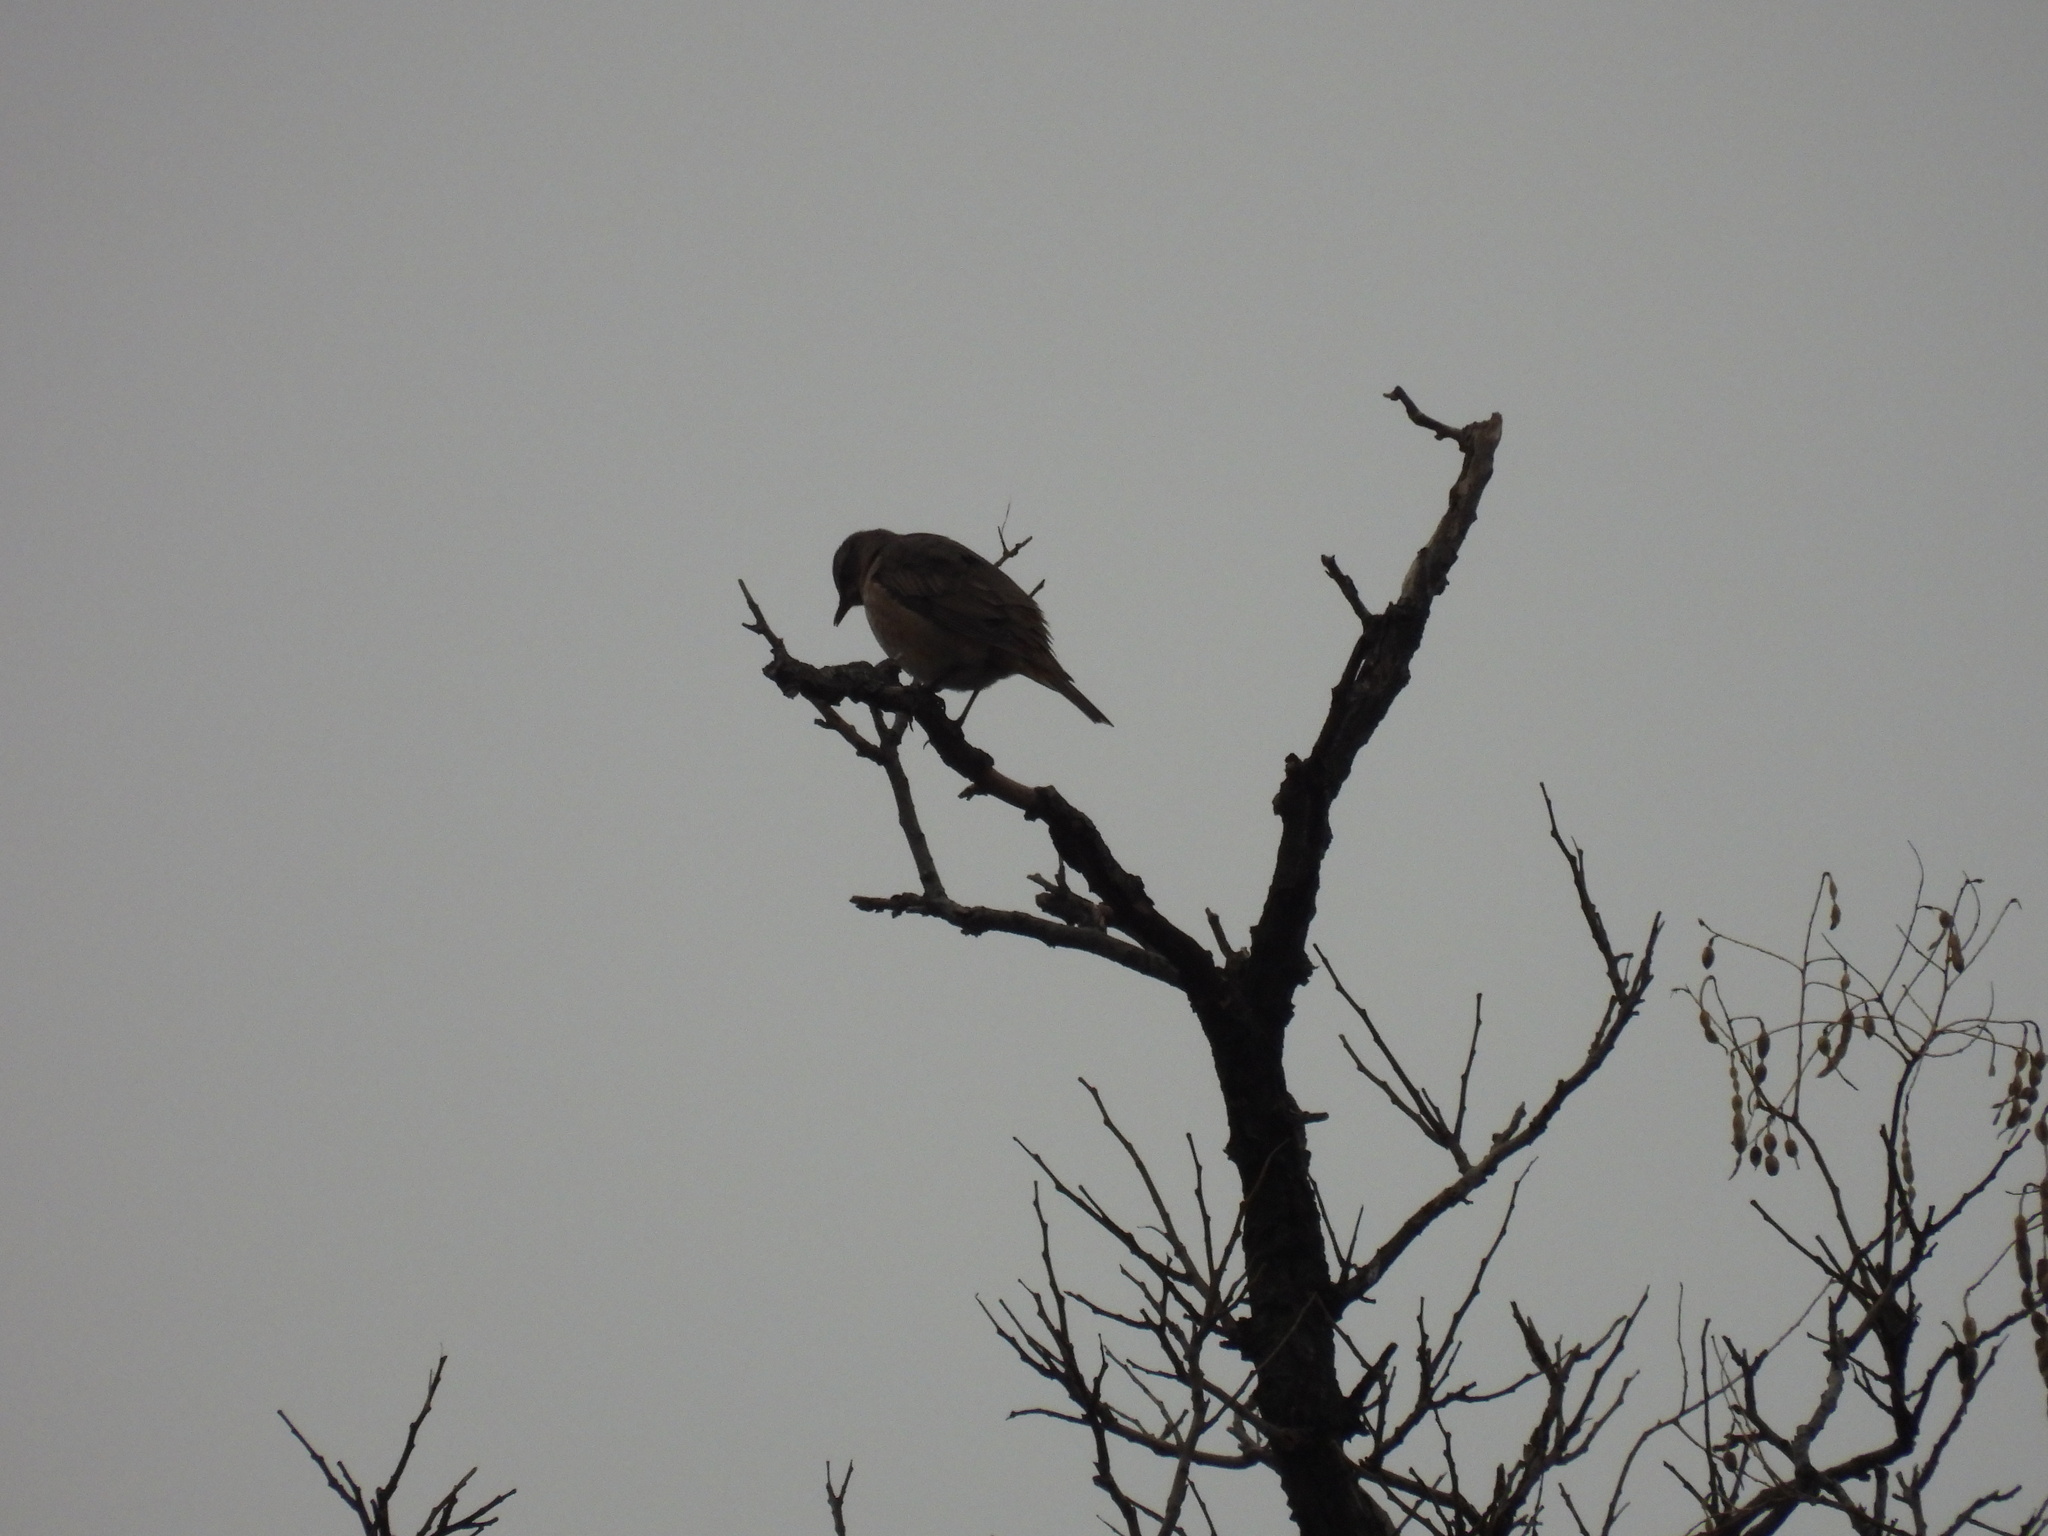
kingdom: Animalia
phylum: Chordata
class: Aves
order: Passeriformes
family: Turdidae
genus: Turdus
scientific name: Turdus naumanni
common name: Naumann's thrush
